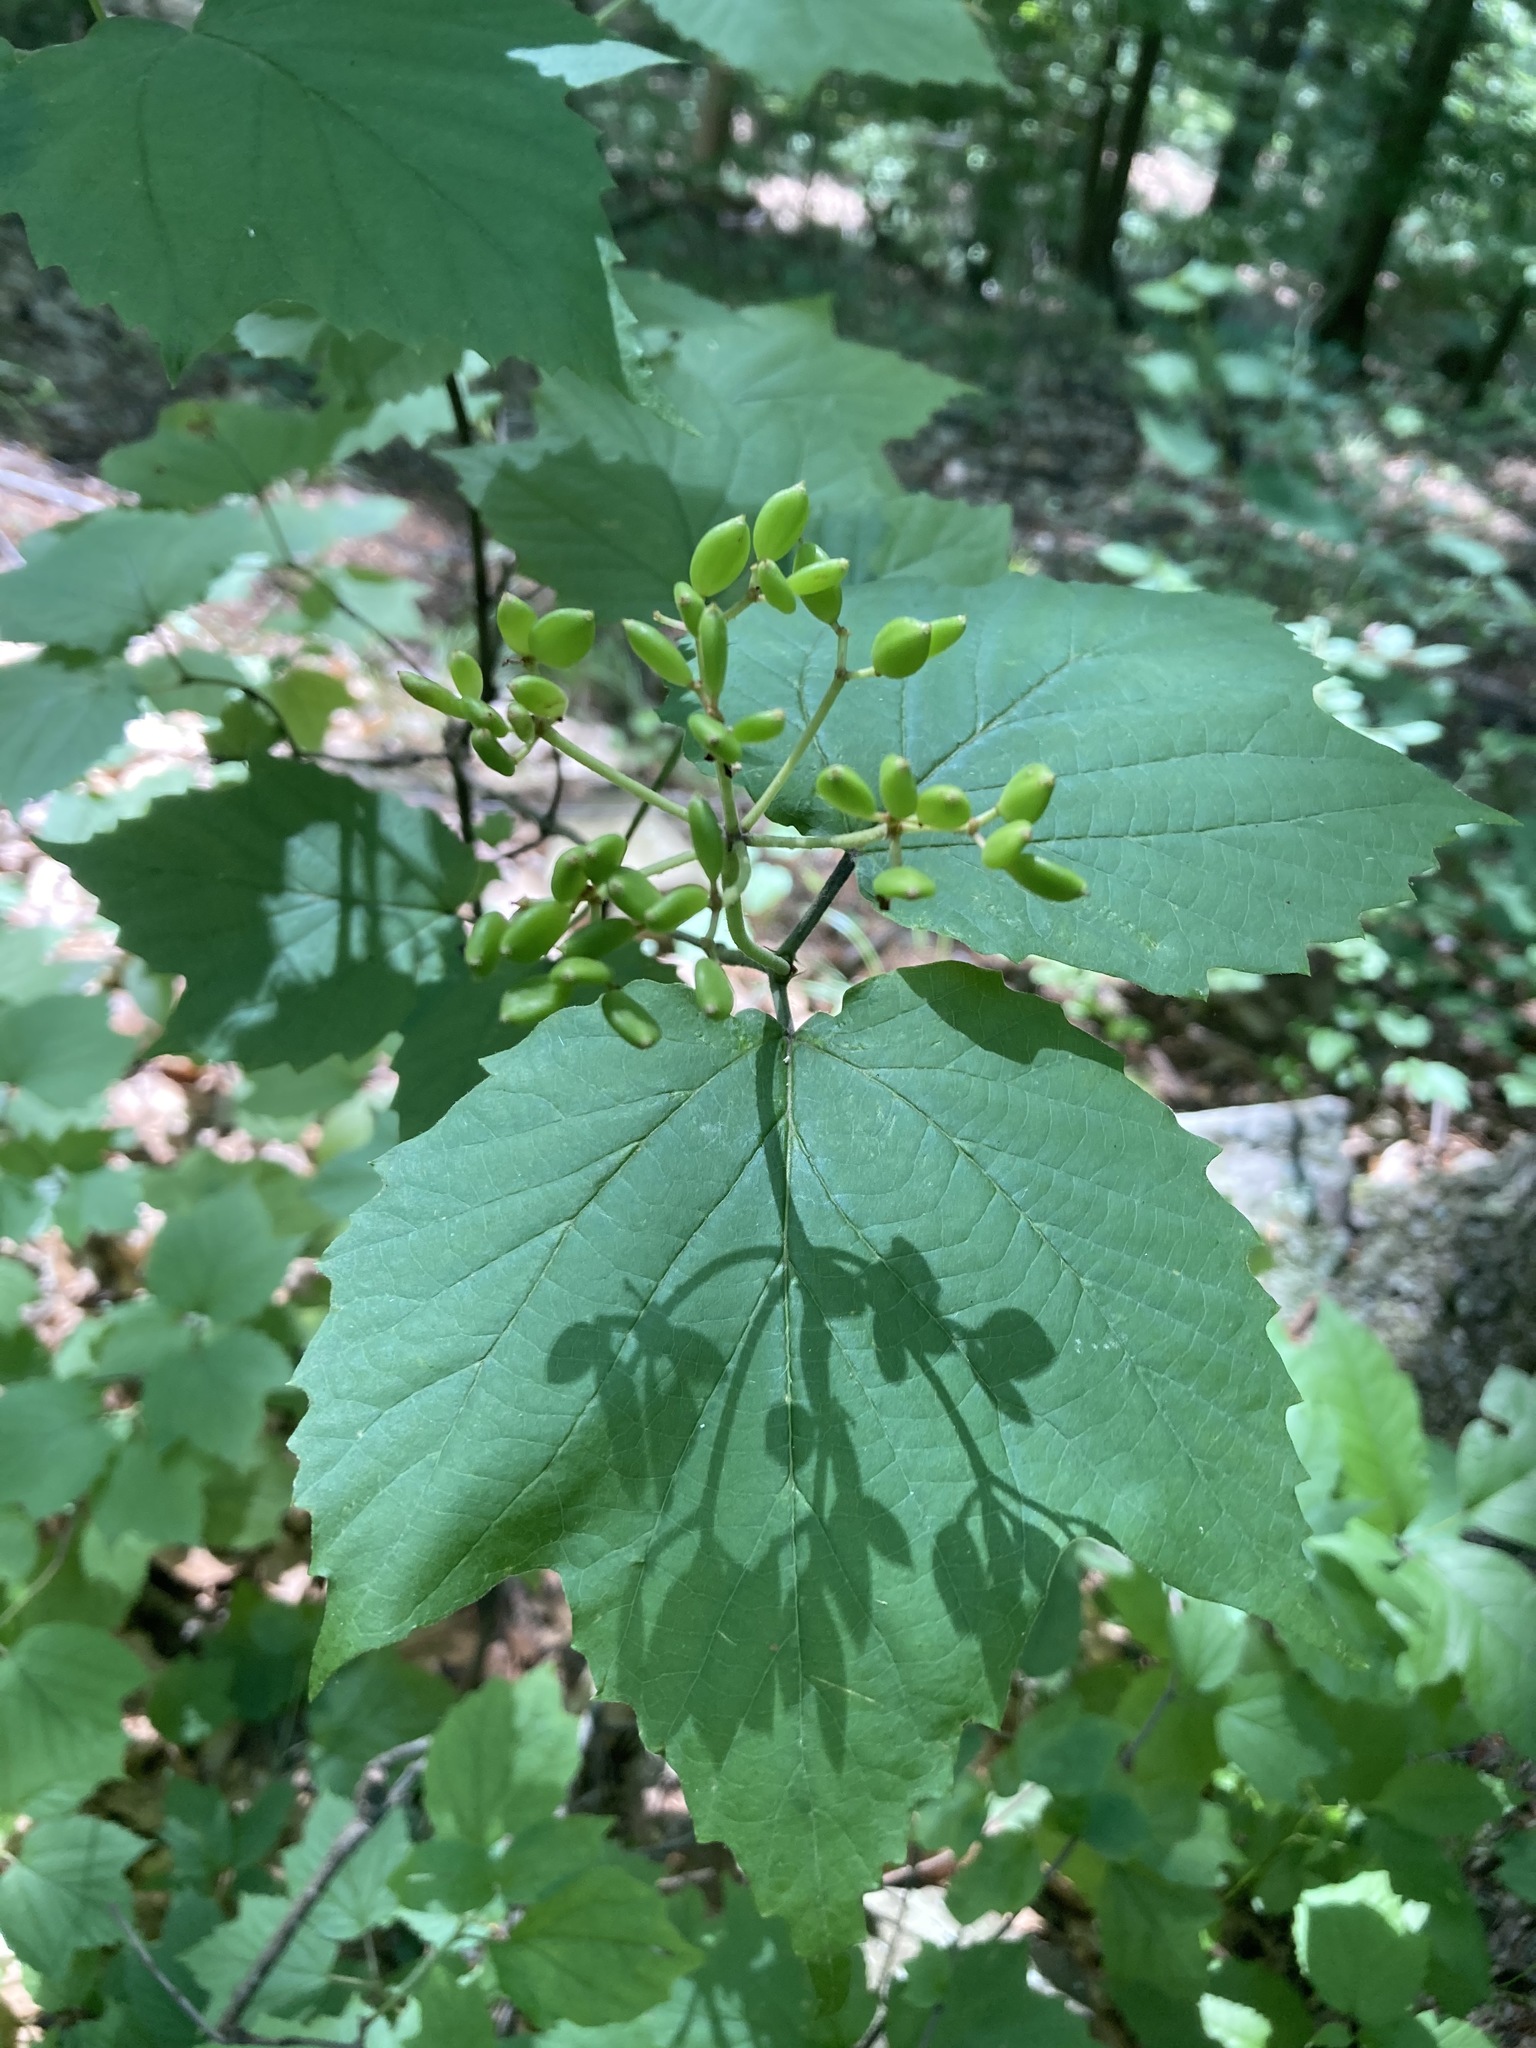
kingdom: Plantae
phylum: Tracheophyta
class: Magnoliopsida
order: Dipsacales
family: Viburnaceae
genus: Viburnum
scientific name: Viburnum acerifolium
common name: Dockmackie
